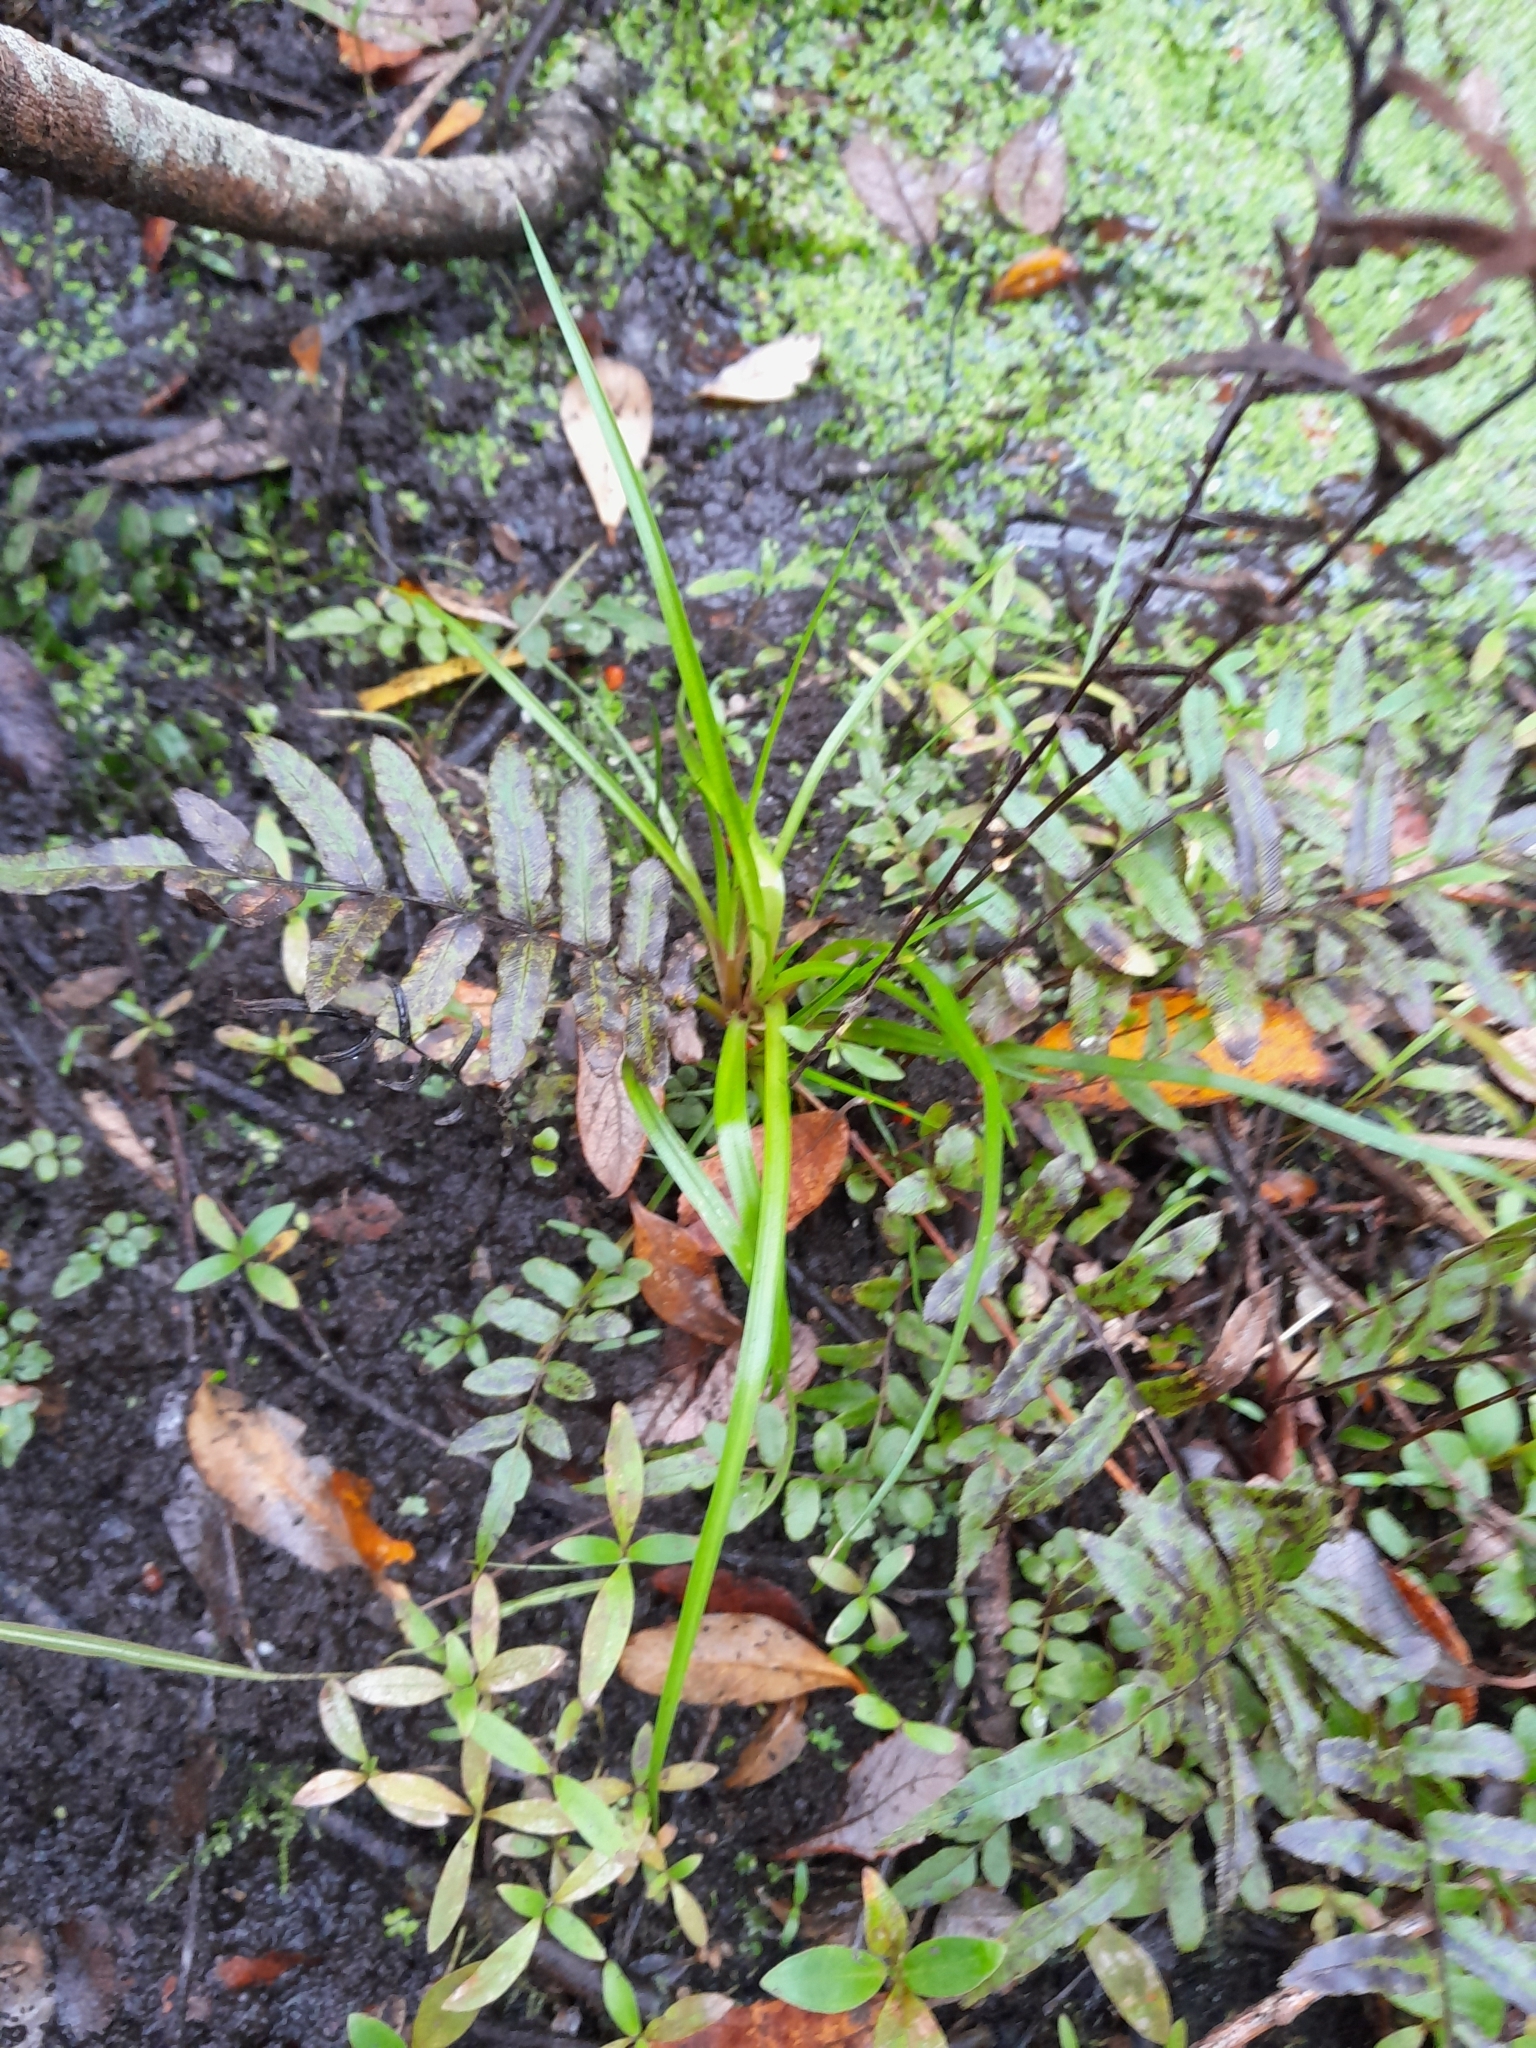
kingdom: Plantae
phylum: Tracheophyta
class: Liliopsida
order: Poales
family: Juncaceae
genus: Juncus
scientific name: Juncus planifolius
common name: Broadleaf rush
